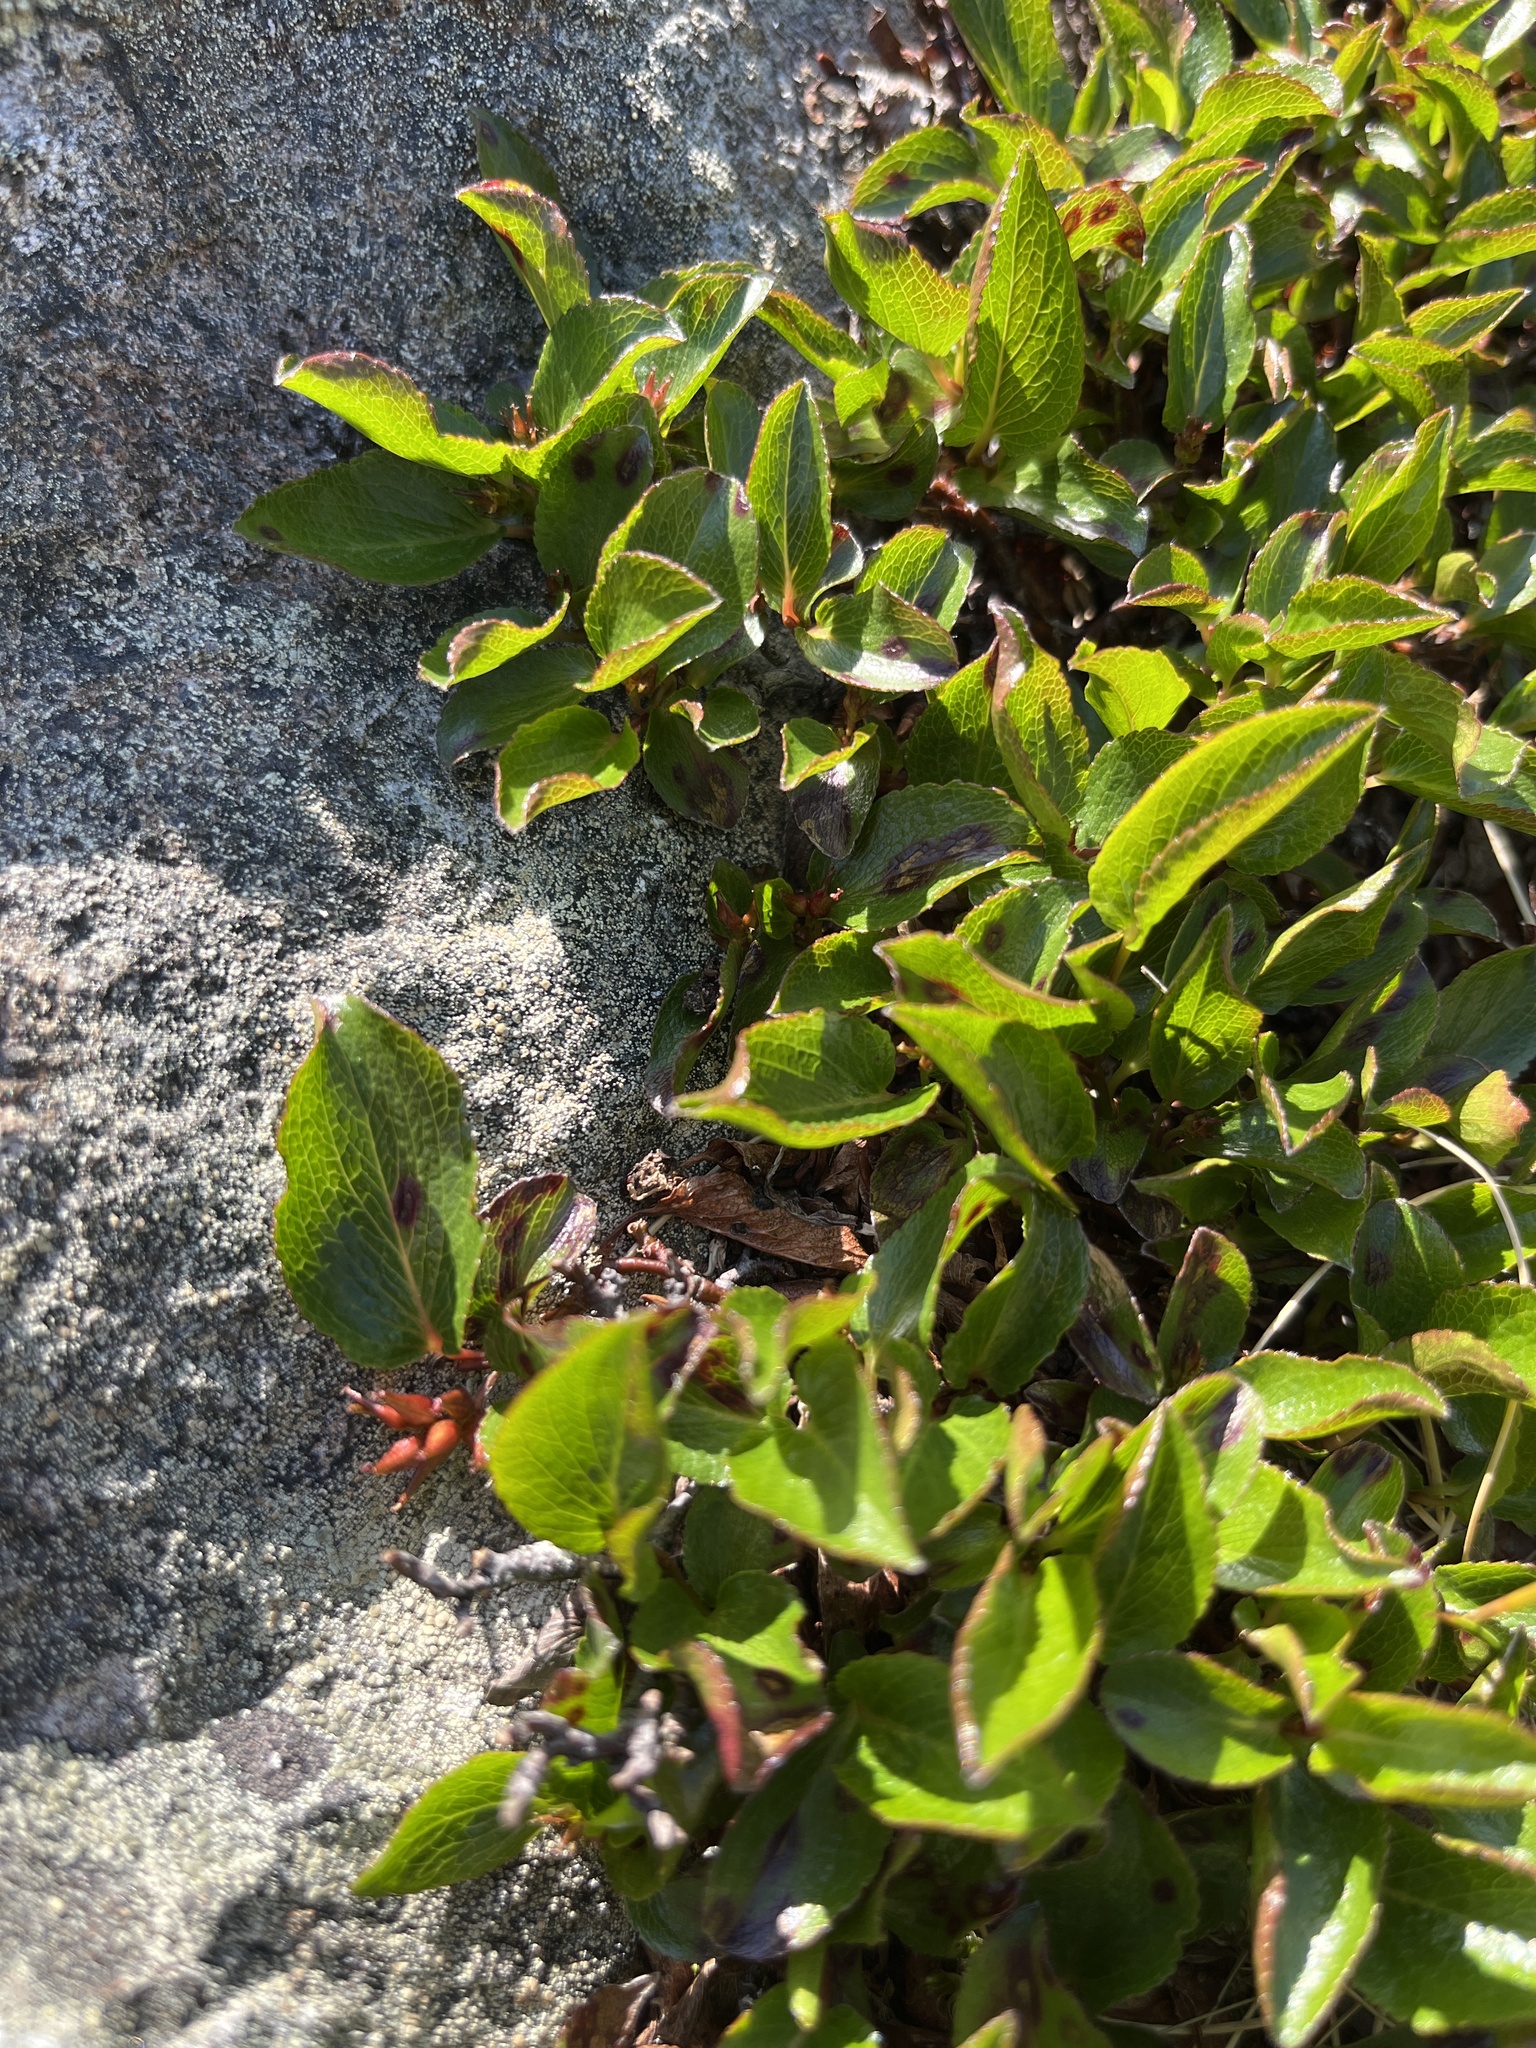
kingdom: Plantae
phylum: Tracheophyta
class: Magnoliopsida
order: Malpighiales
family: Salicaceae
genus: Salix
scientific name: Salix herbacea
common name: Dwarf willow
